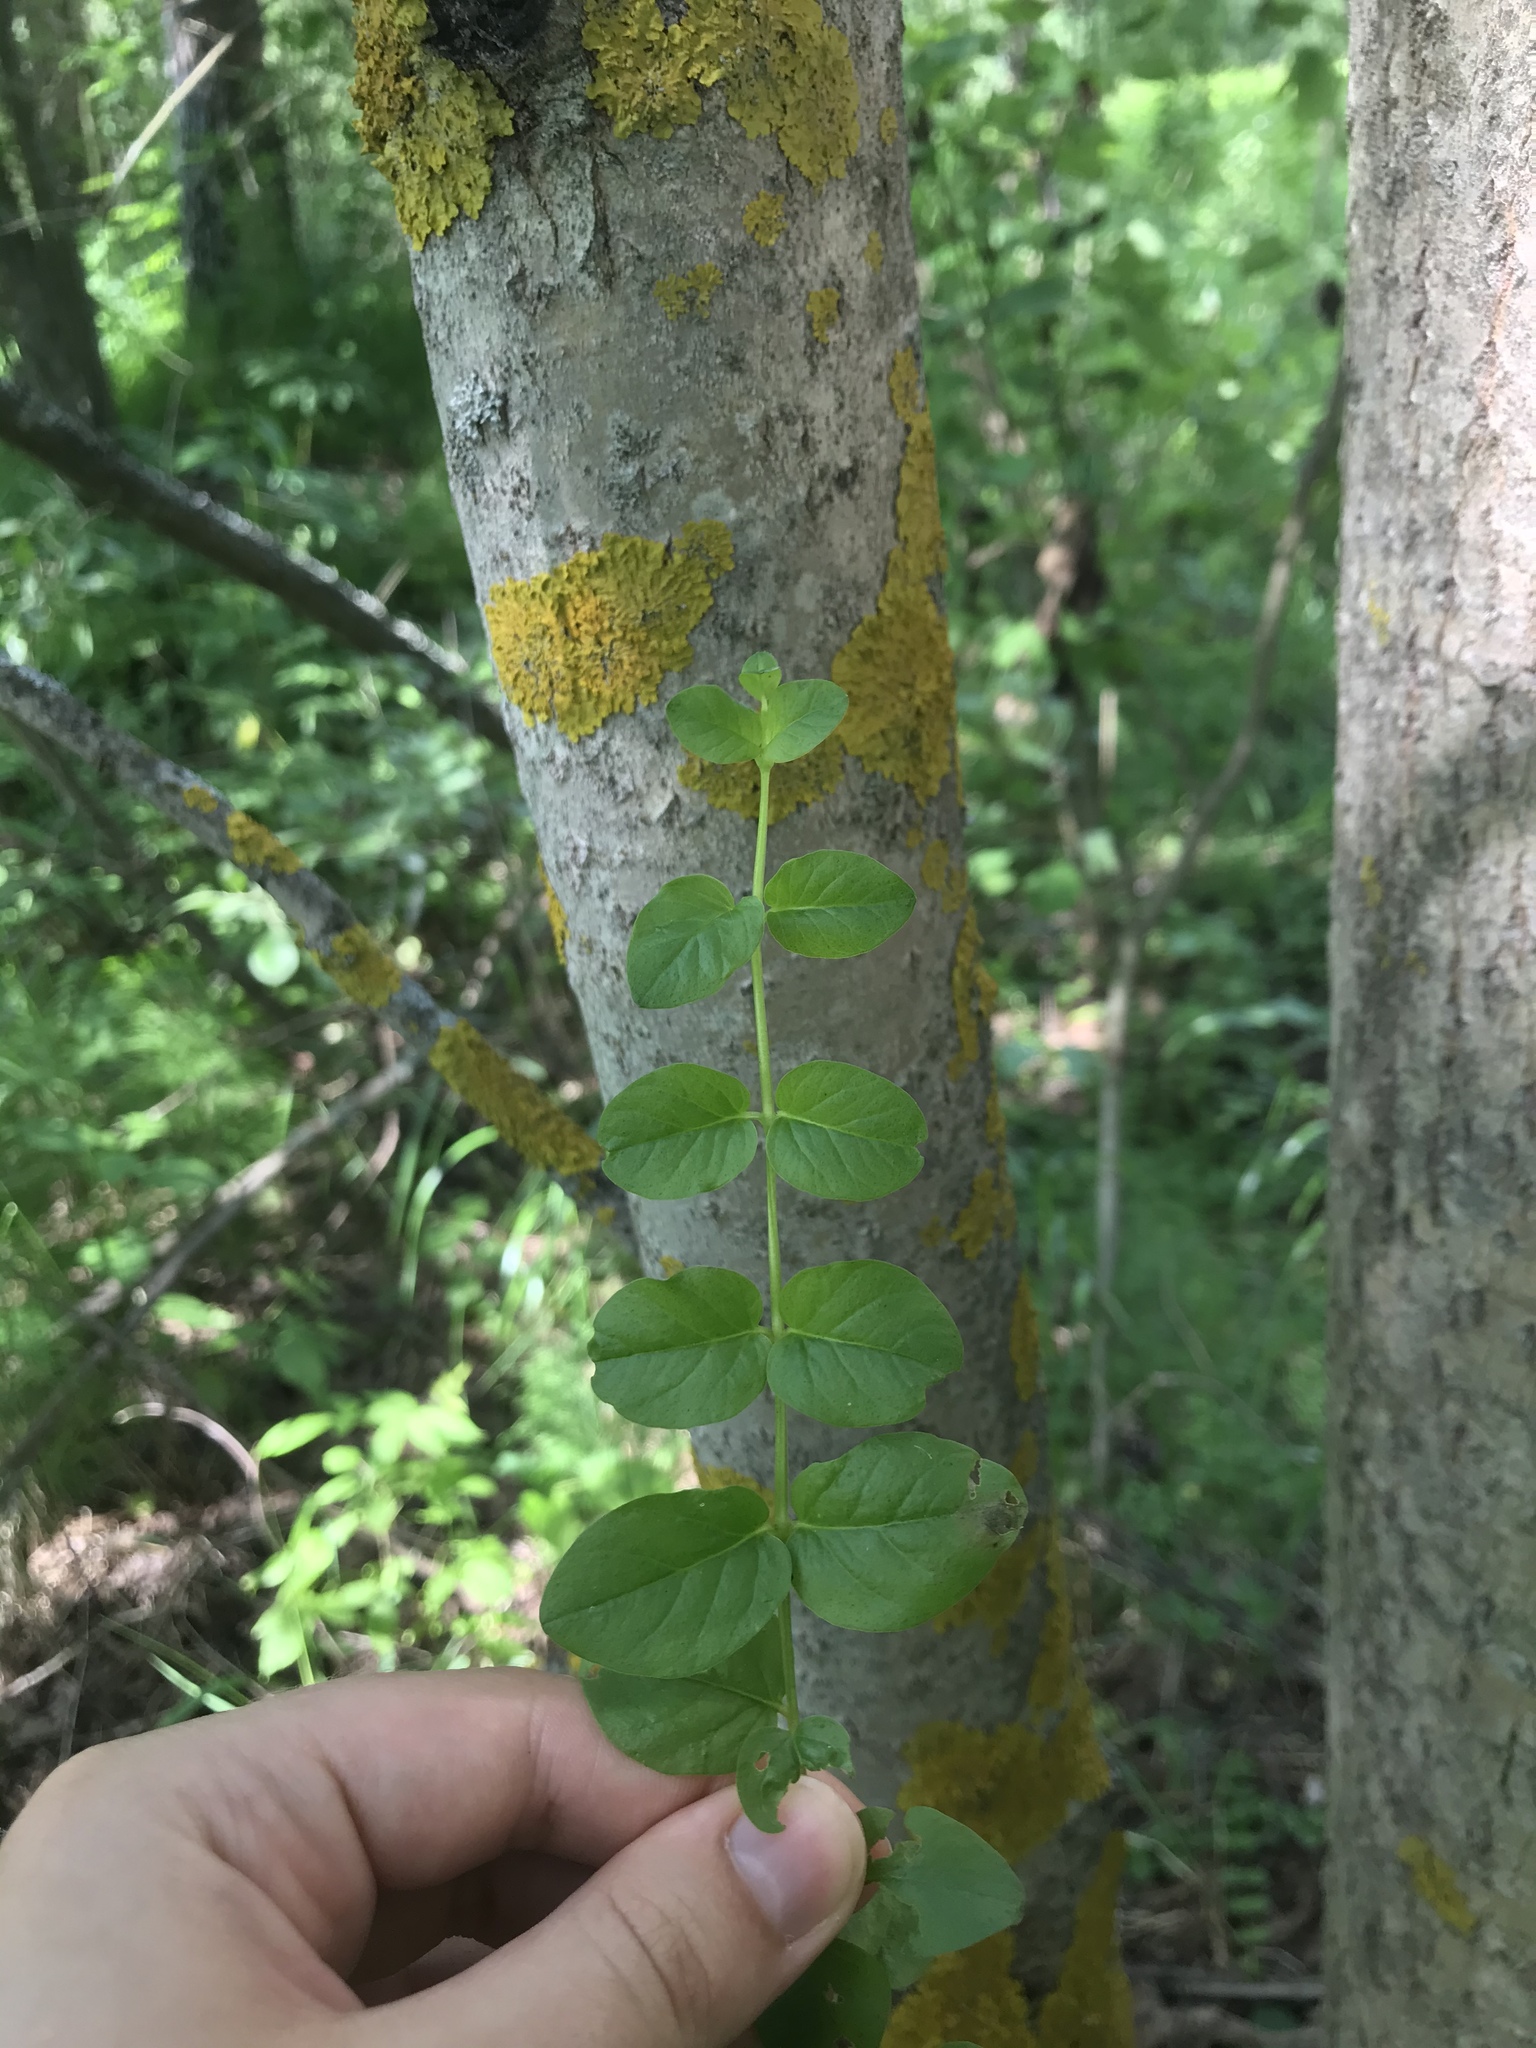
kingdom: Plantae
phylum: Tracheophyta
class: Magnoliopsida
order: Ericales
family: Primulaceae
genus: Lysimachia
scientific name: Lysimachia nummularia
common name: Moneywort
